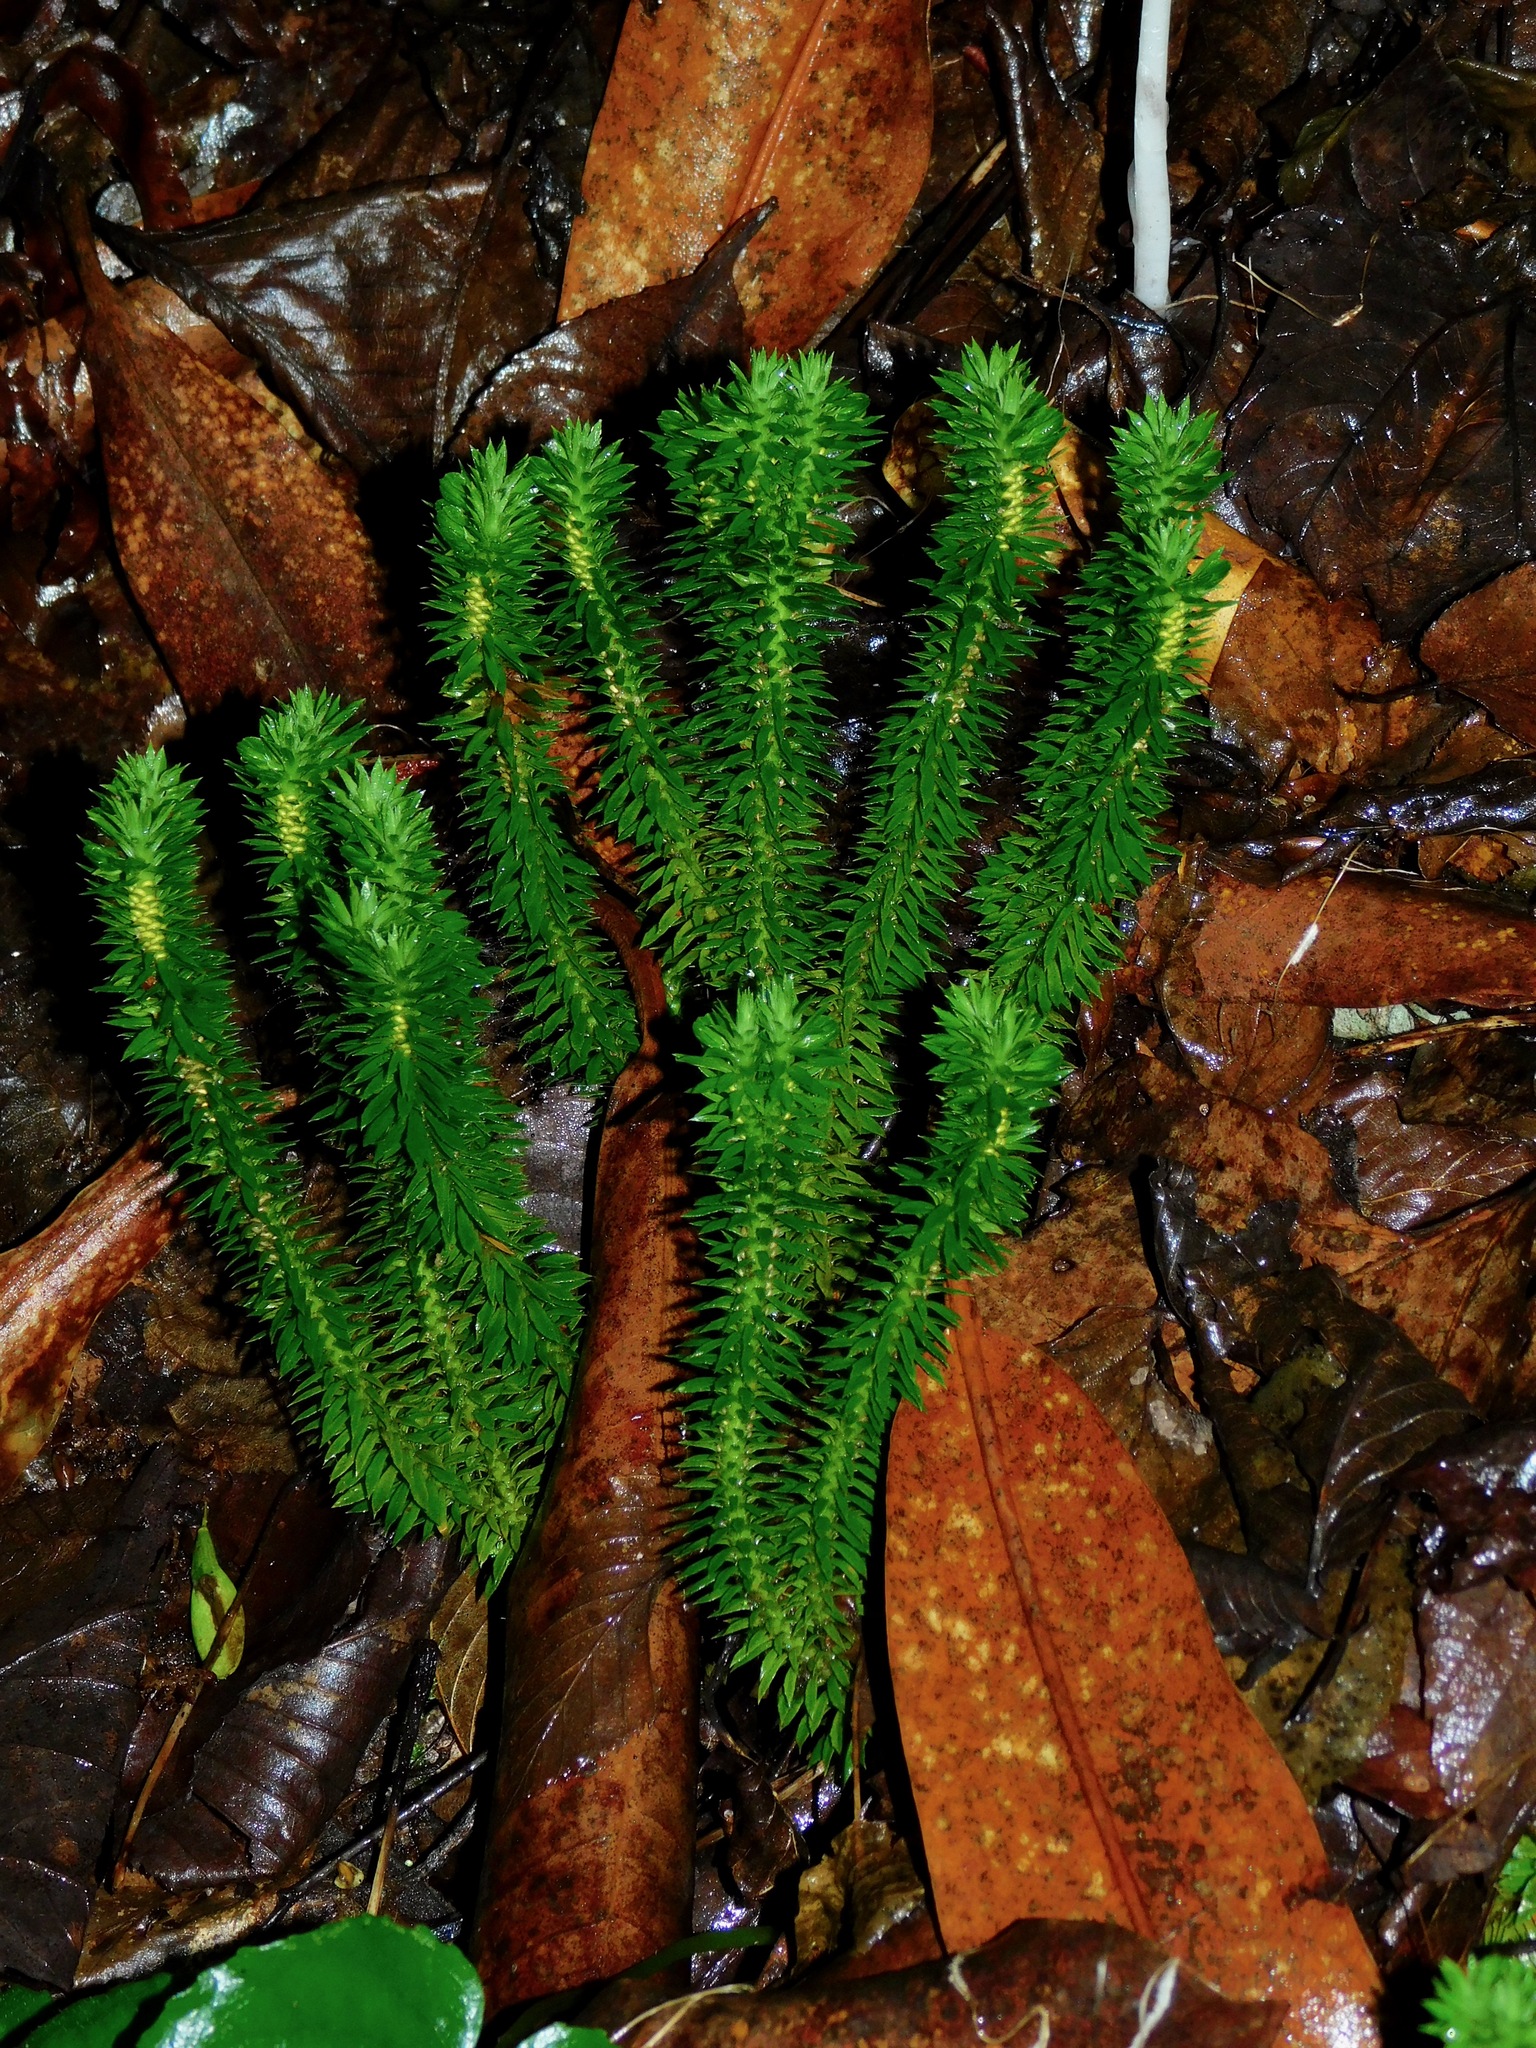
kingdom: Plantae
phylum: Tracheophyta
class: Lycopodiopsida
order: Lycopodiales
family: Lycopodiaceae
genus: Huperzia
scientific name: Huperzia lucidula
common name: Shining clubmoss
